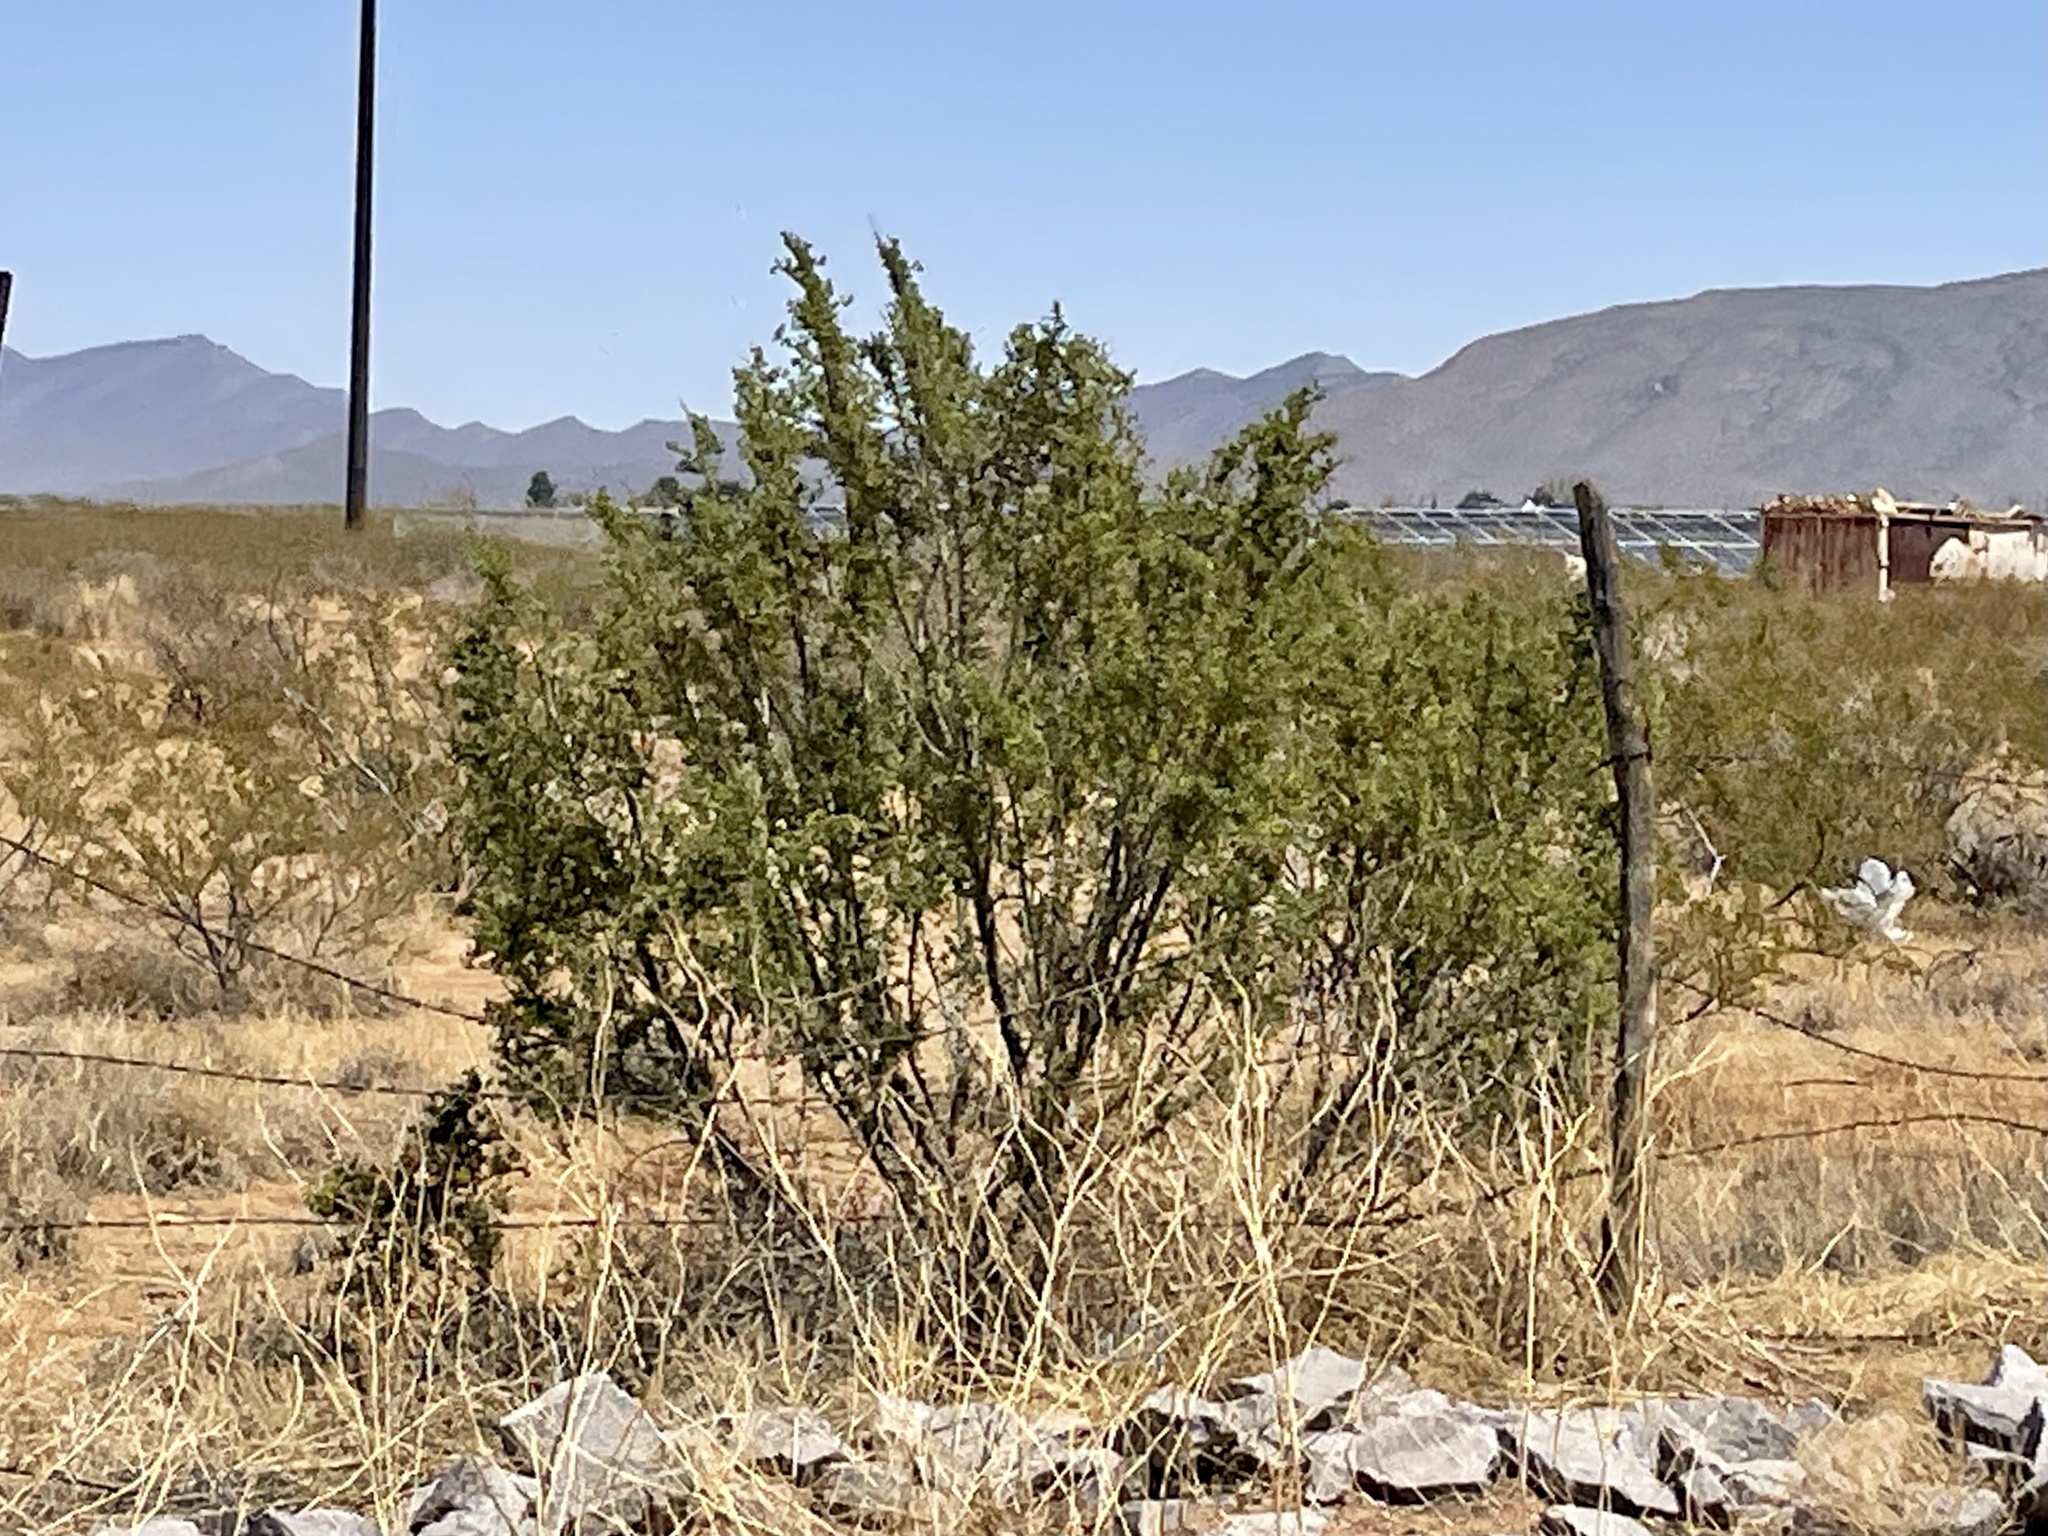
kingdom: Plantae
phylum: Tracheophyta
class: Magnoliopsida
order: Zygophyllales
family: Zygophyllaceae
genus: Larrea
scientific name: Larrea tridentata
